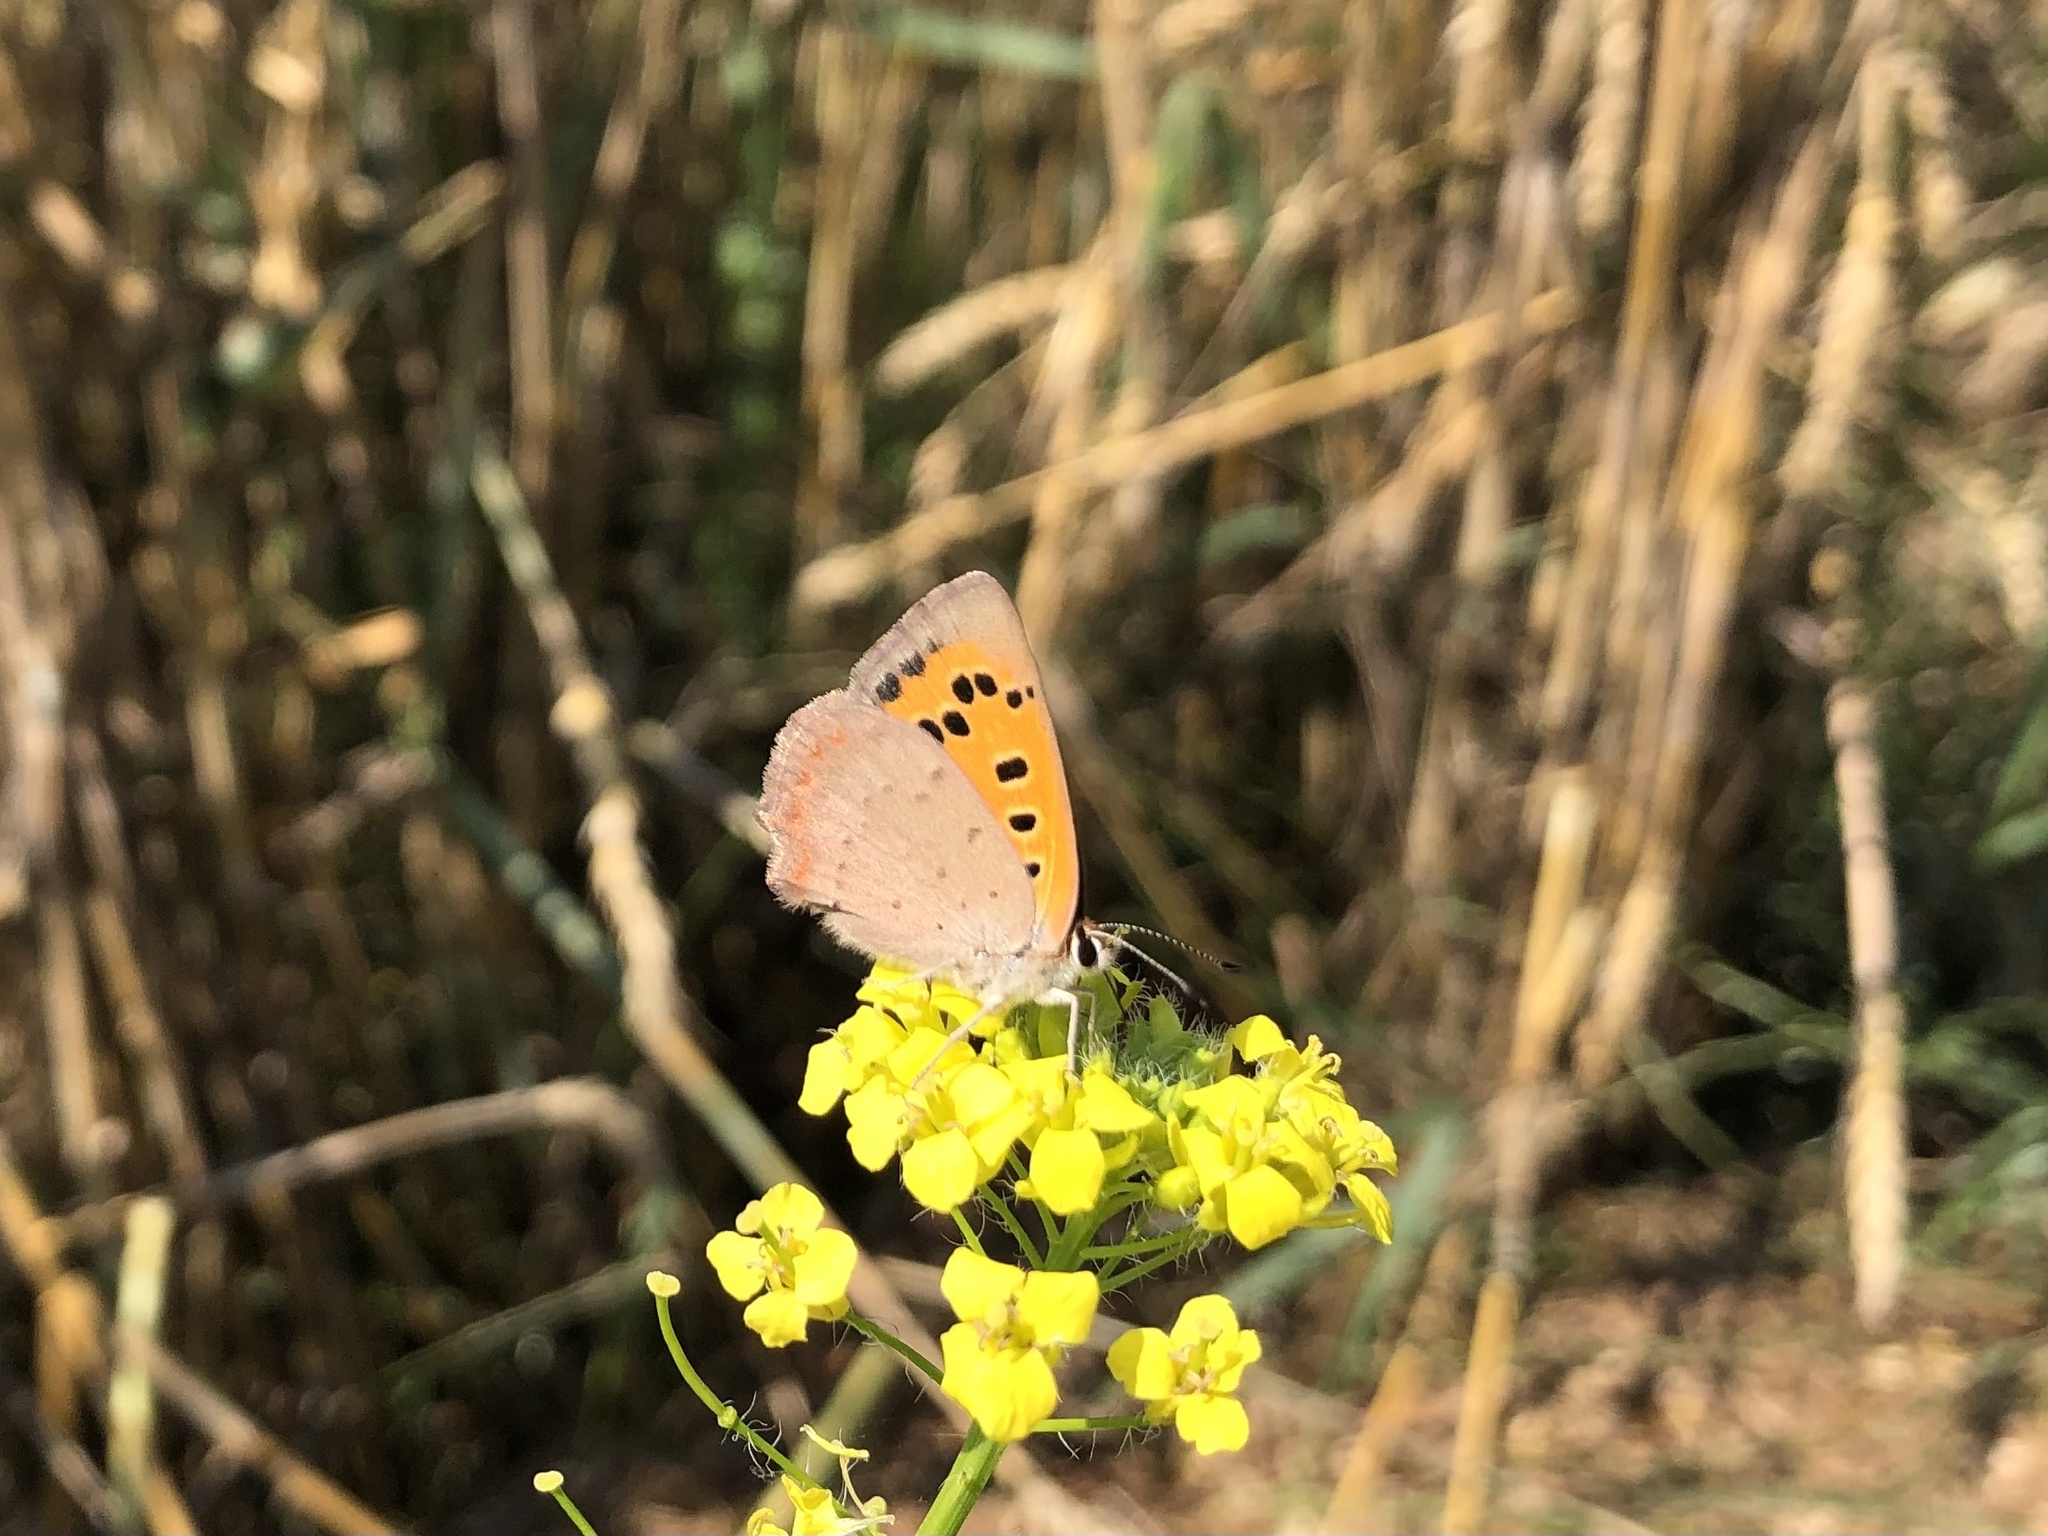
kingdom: Animalia
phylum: Arthropoda
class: Insecta
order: Lepidoptera
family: Lycaenidae
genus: Lycaena
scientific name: Lycaena phlaeas
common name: Small copper
